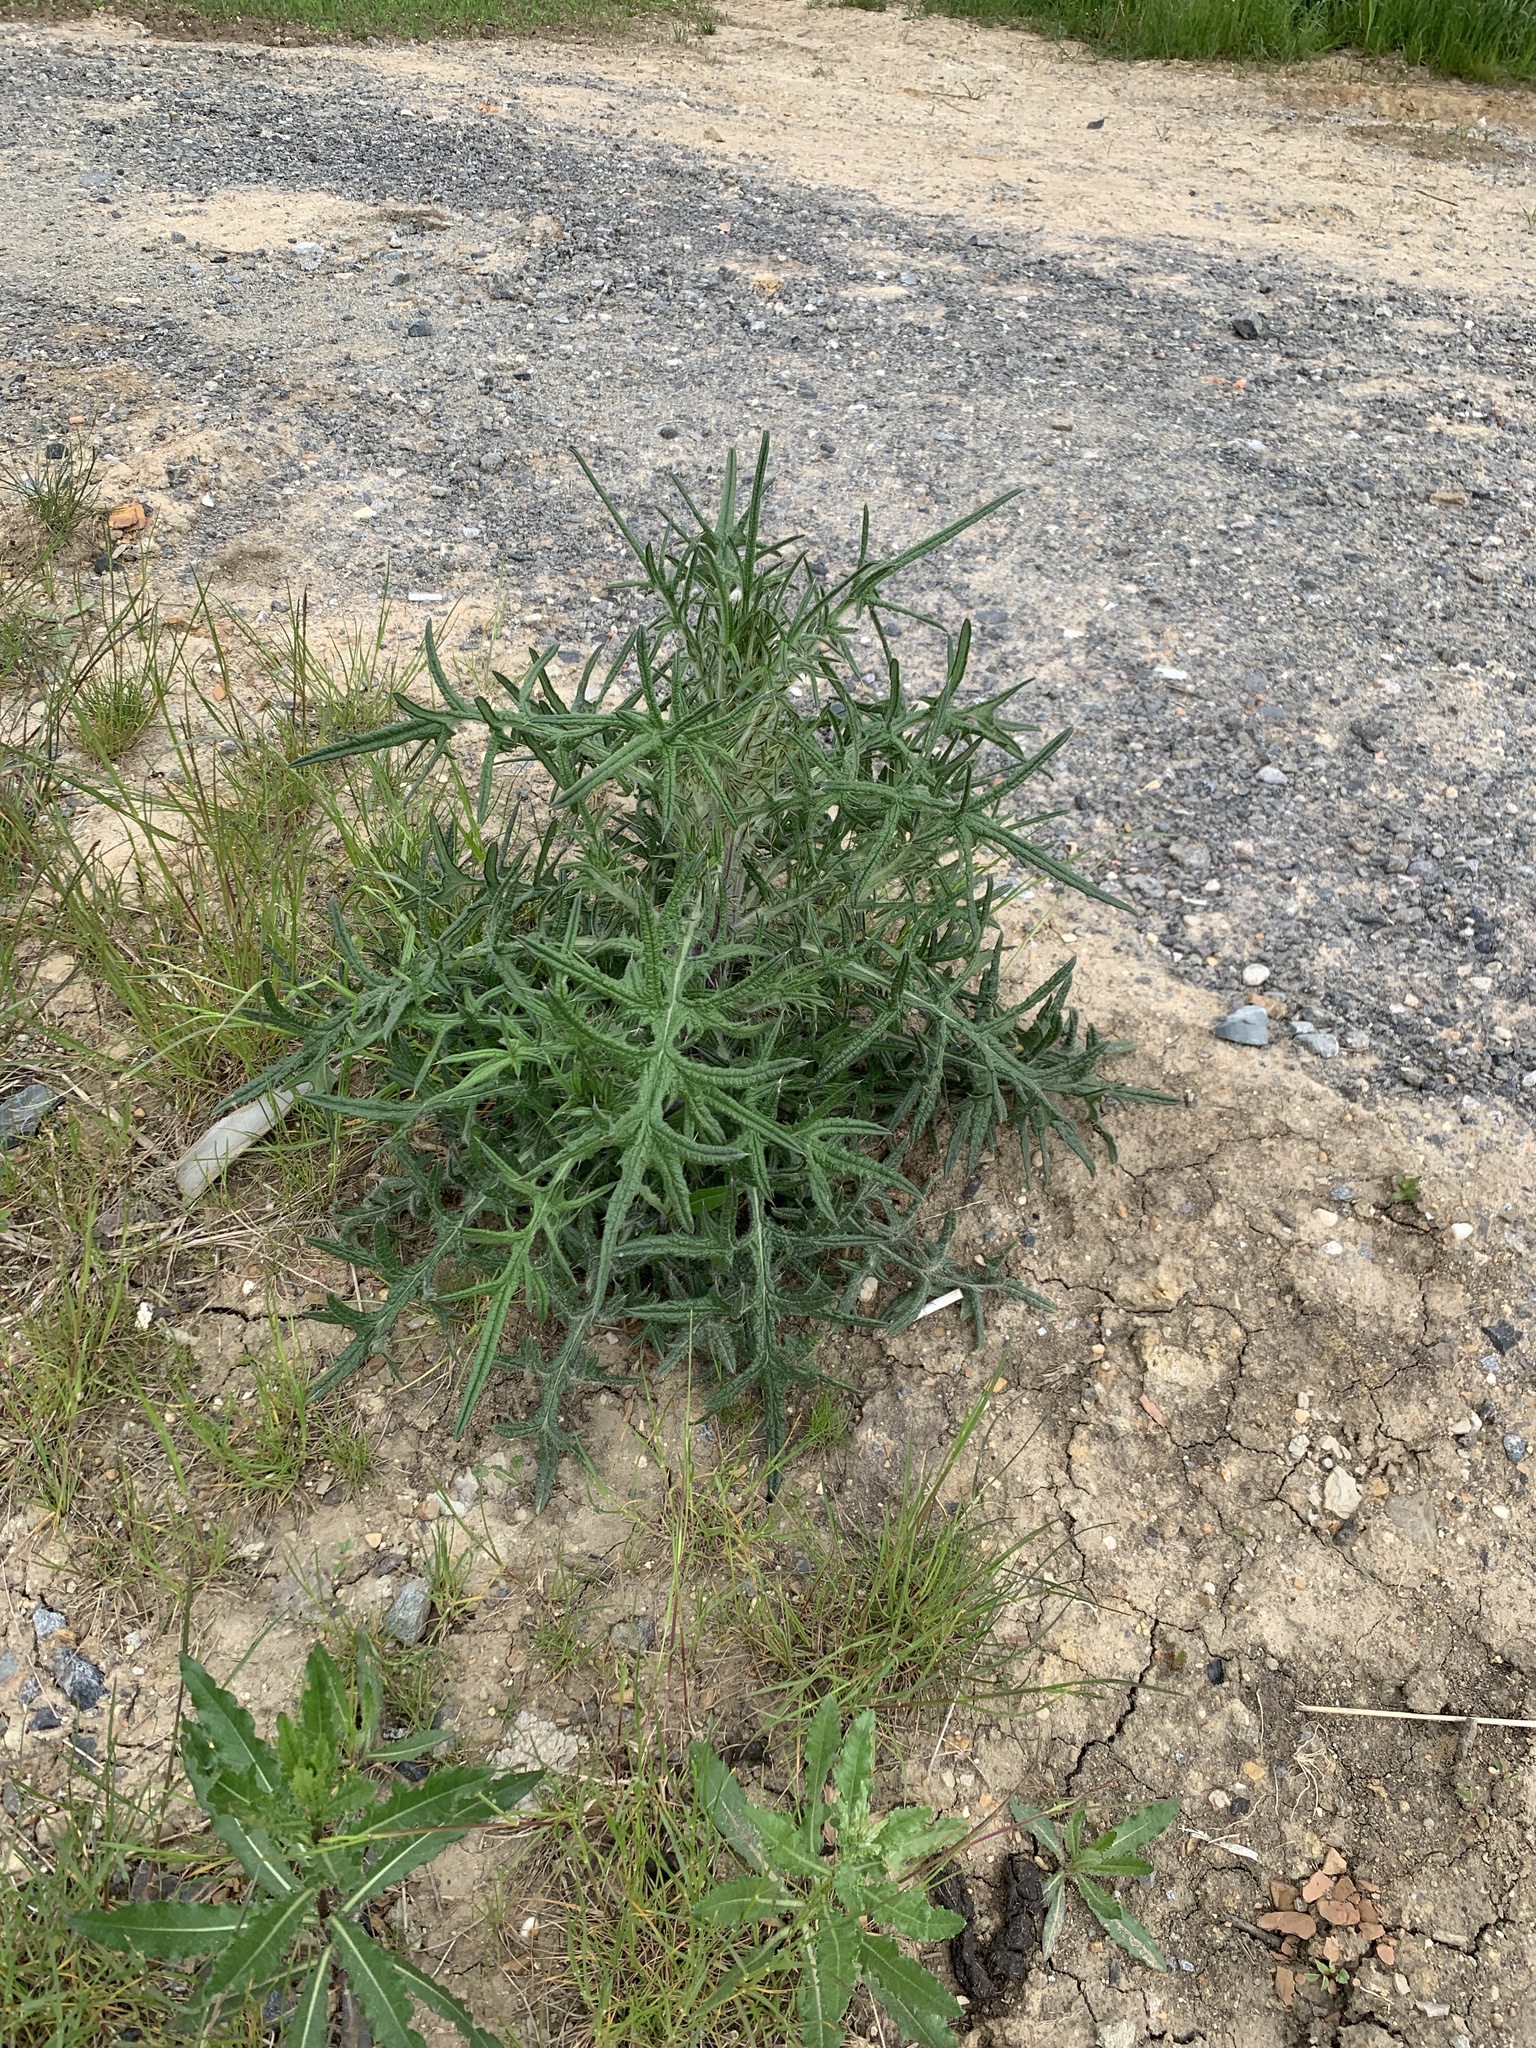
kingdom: Plantae
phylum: Tracheophyta
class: Magnoliopsida
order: Asterales
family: Asteraceae
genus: Cirsium
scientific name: Cirsium vulgare
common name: Bull thistle
